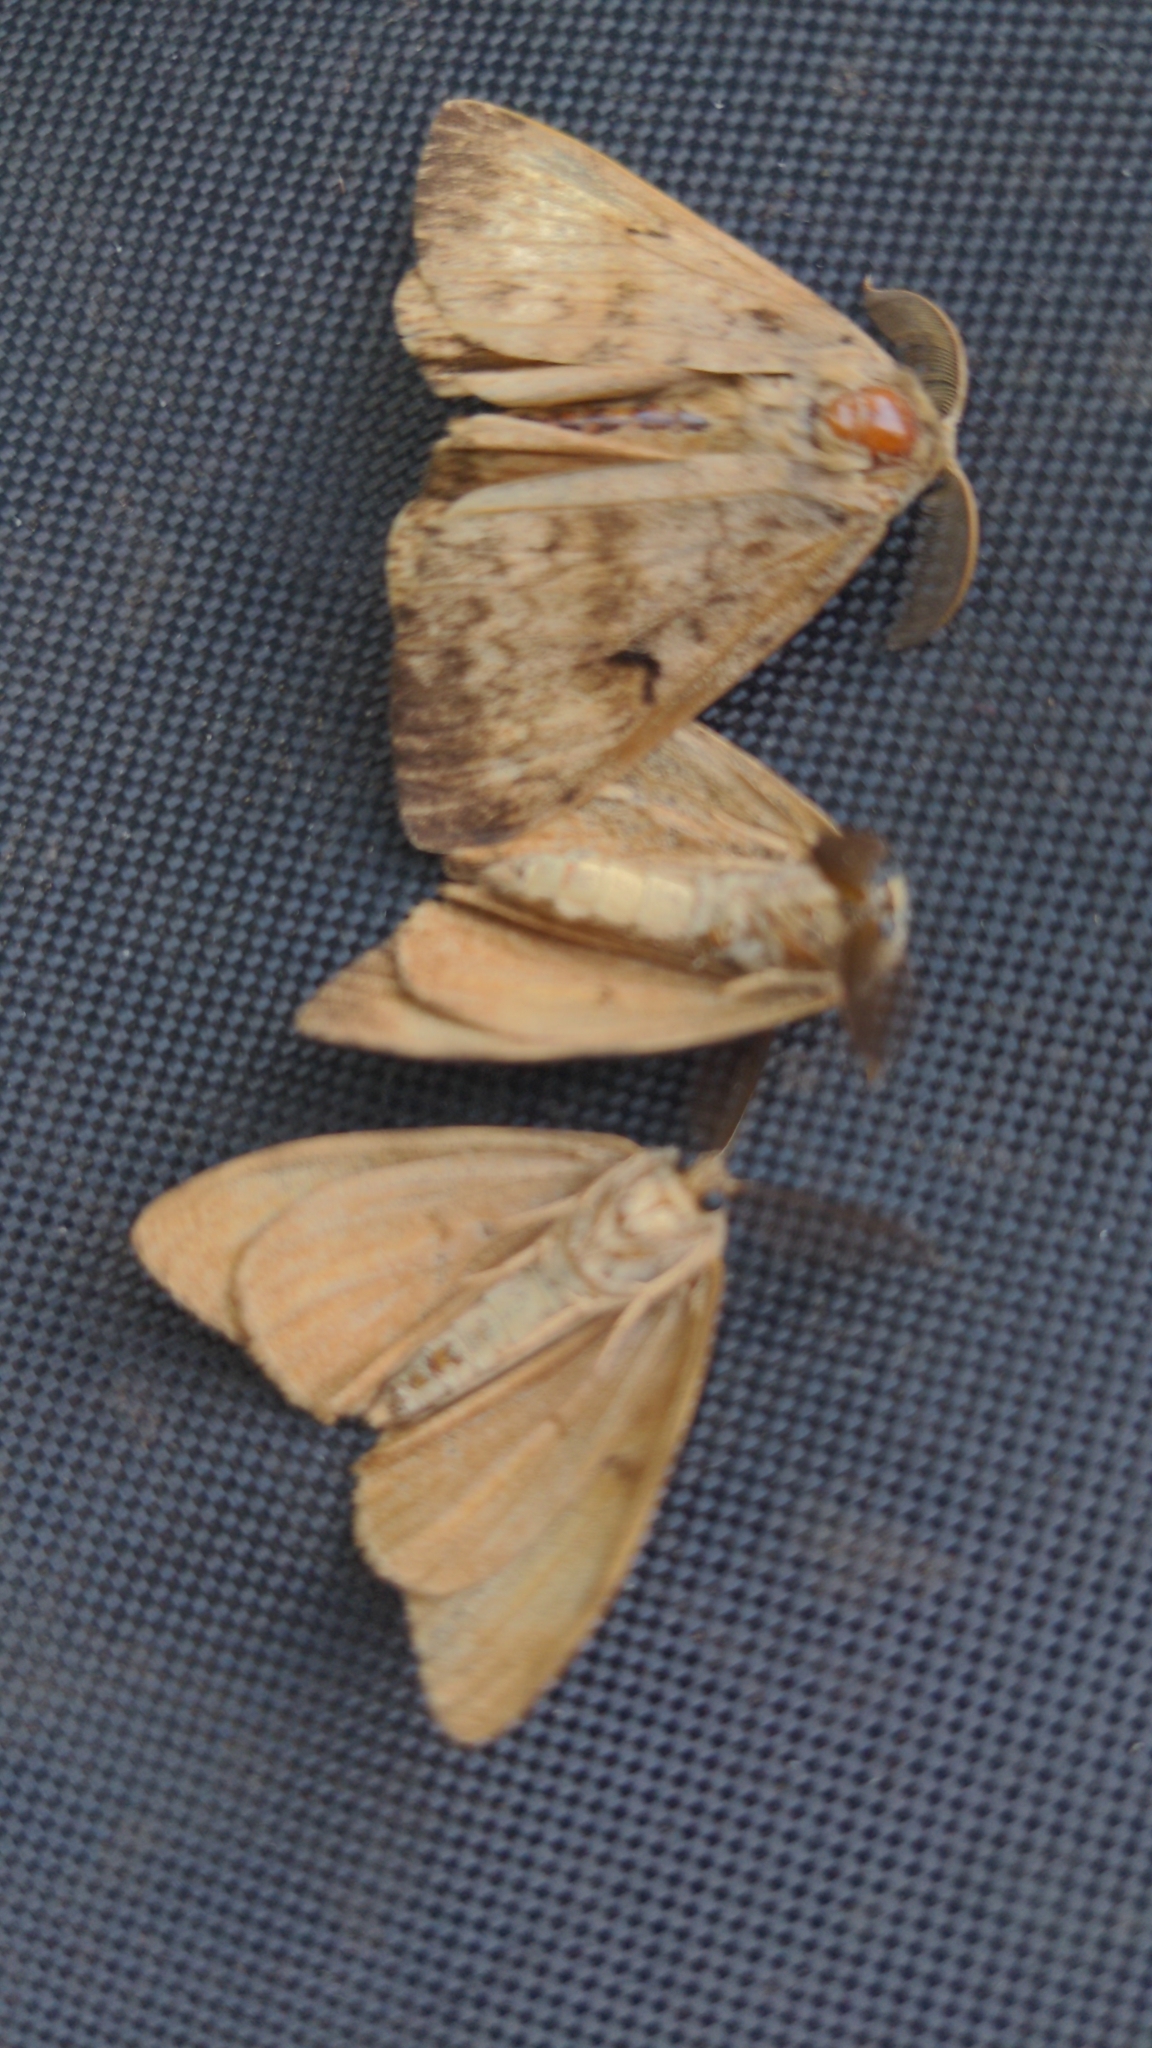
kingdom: Animalia
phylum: Arthropoda
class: Insecta
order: Lepidoptera
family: Erebidae
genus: Lymantria
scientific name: Lymantria dispar
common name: Gypsy moth
